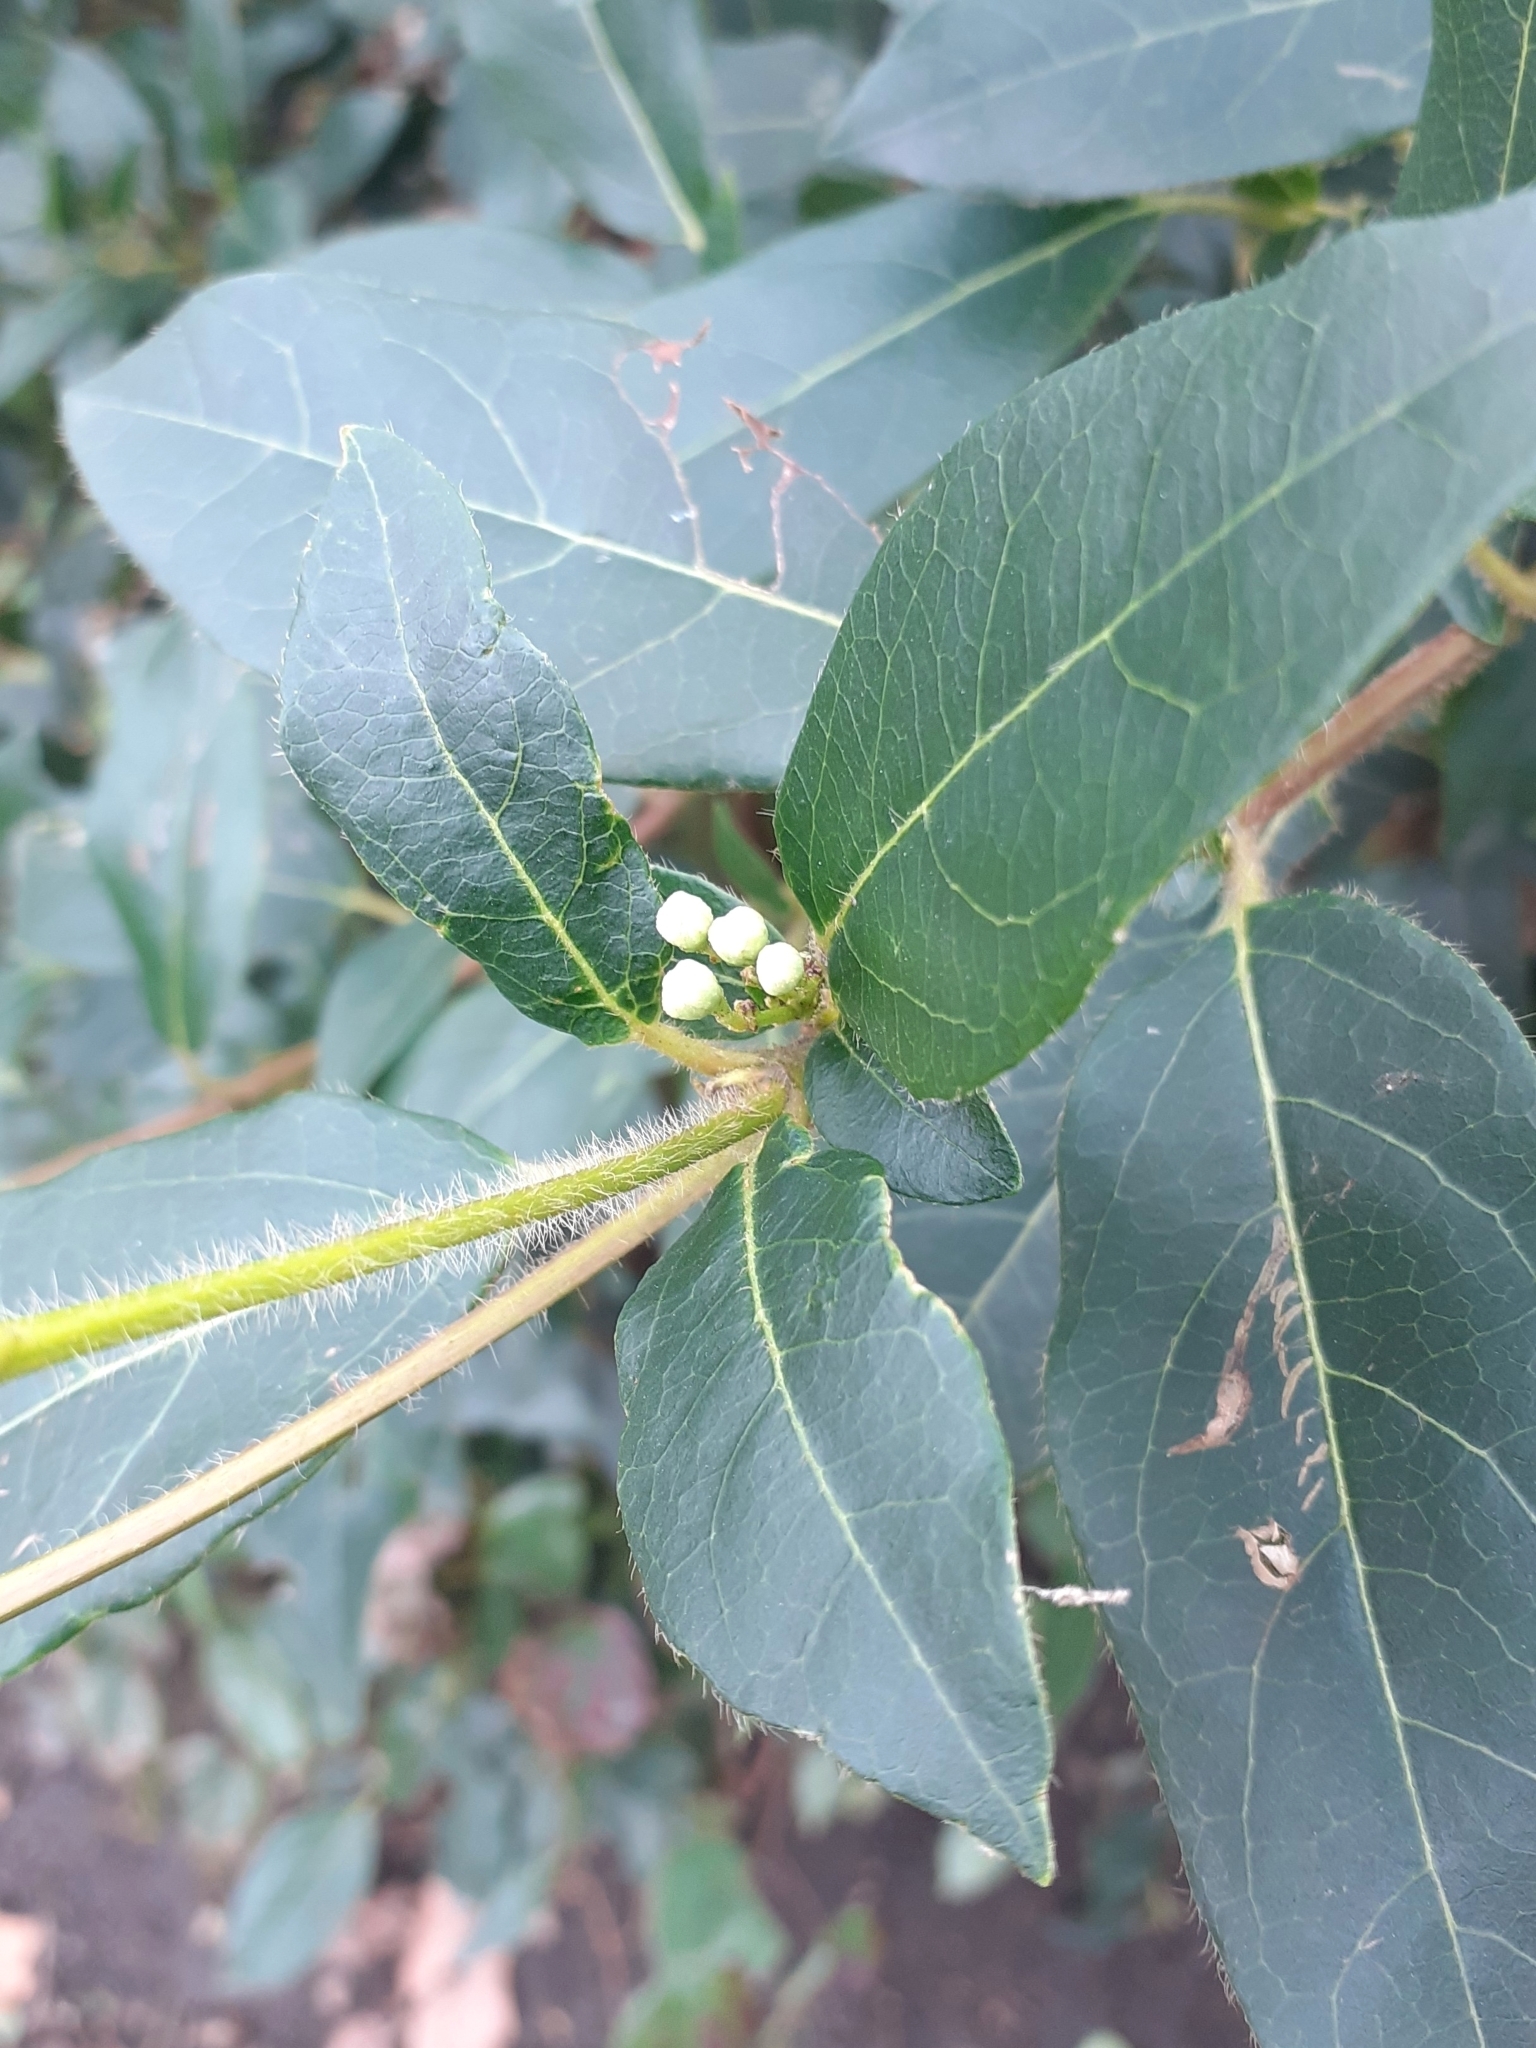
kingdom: Plantae
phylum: Tracheophyta
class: Magnoliopsida
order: Dipsacales
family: Viburnaceae
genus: Viburnum
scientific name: Viburnum tinus
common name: Laurustinus
